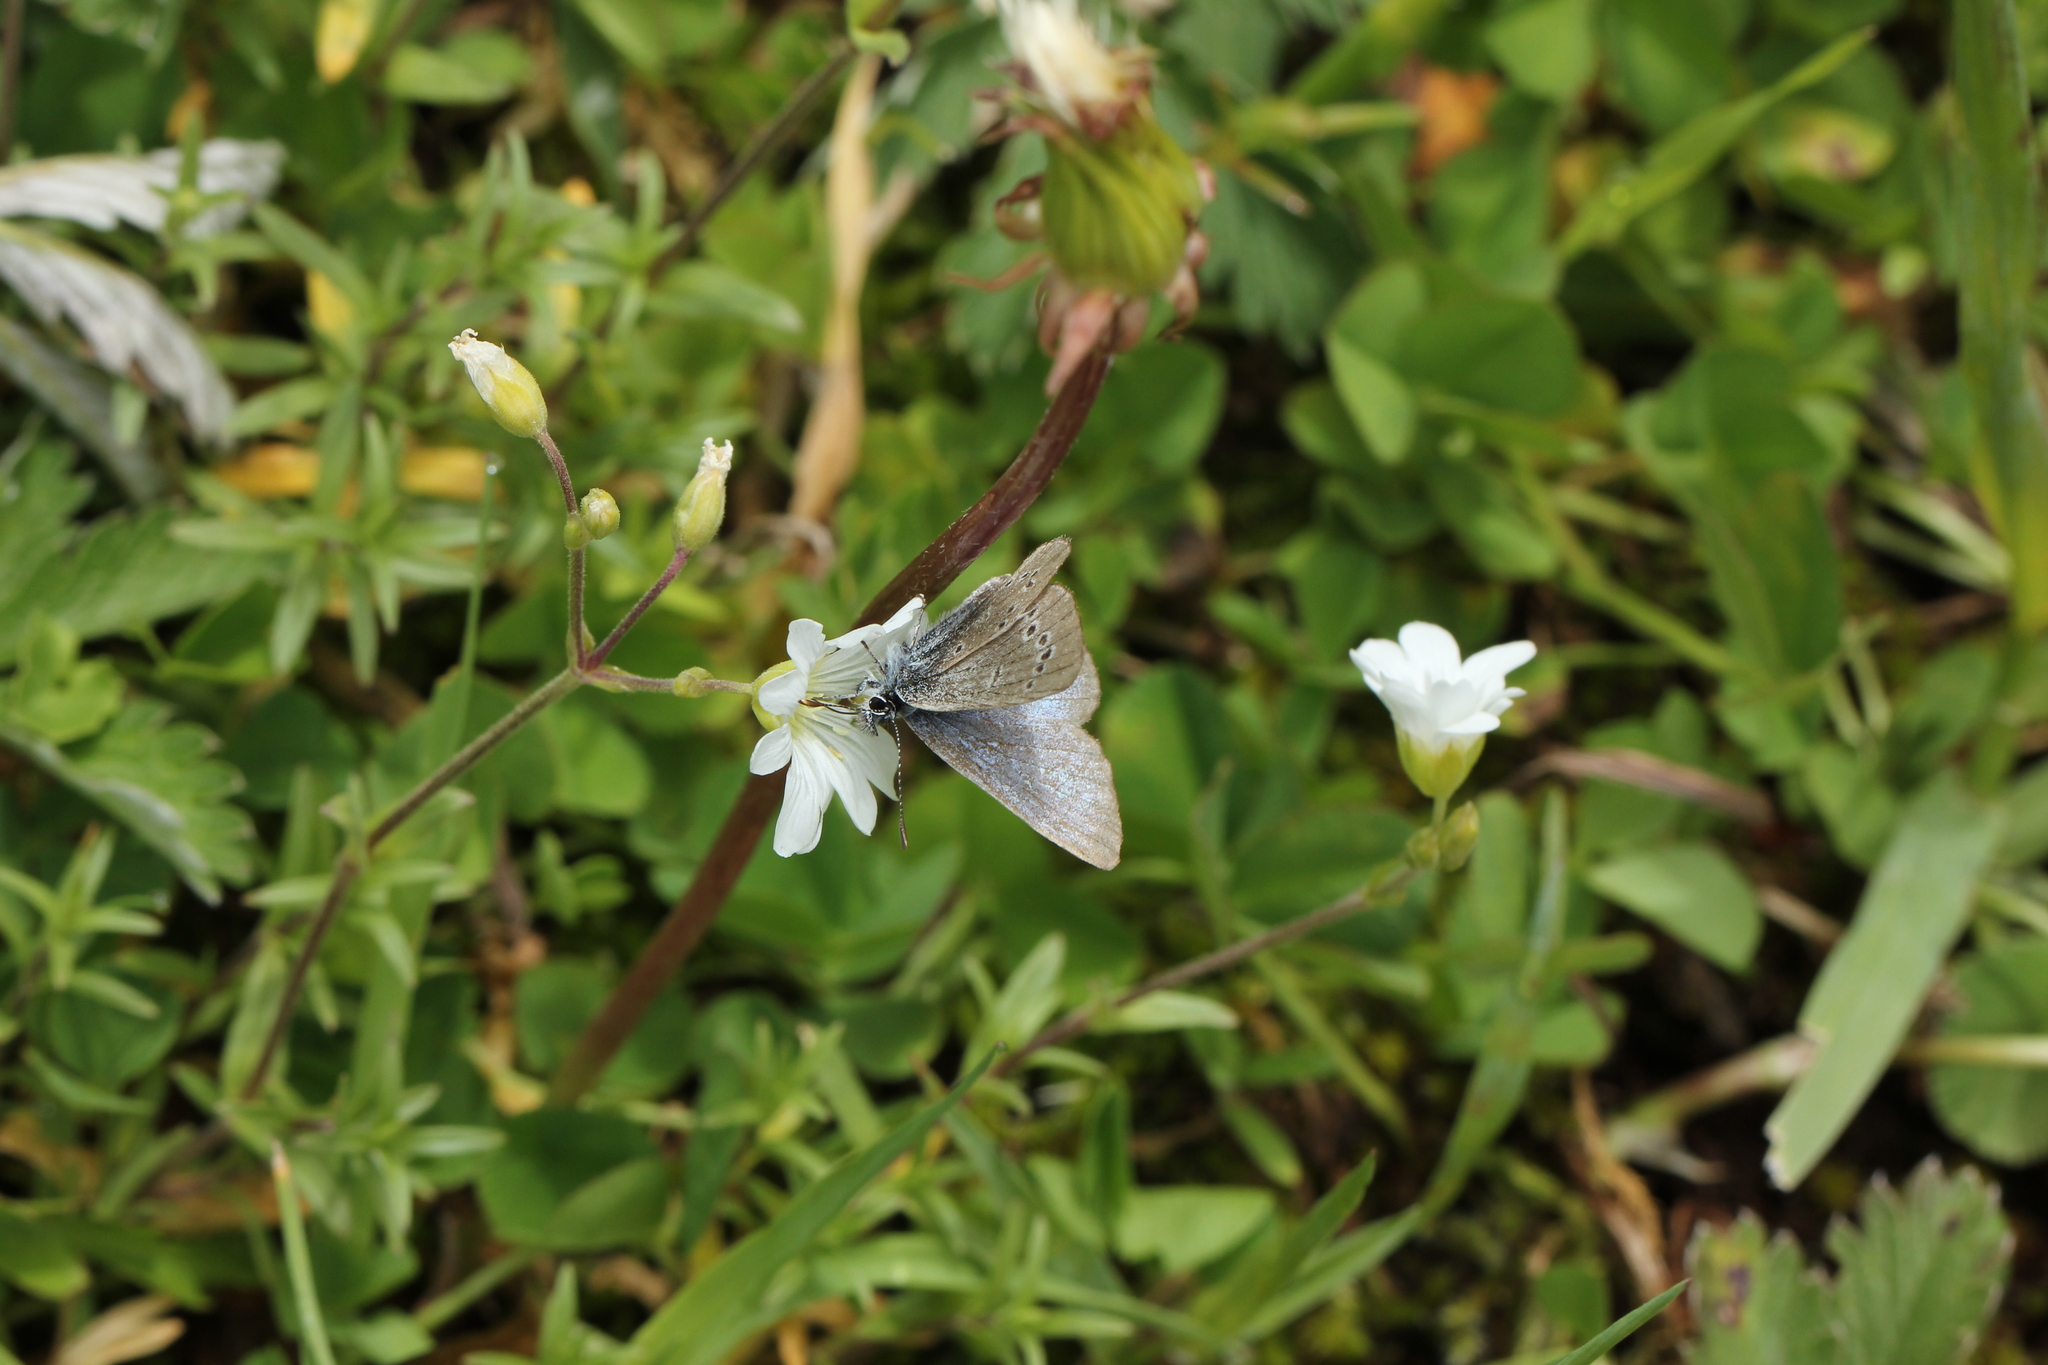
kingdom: Animalia
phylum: Arthropoda
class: Insecta
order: Lepidoptera
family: Lycaenidae
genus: Glaucopsyche
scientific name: Glaucopsyche lygdamus
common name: Silvery blue
